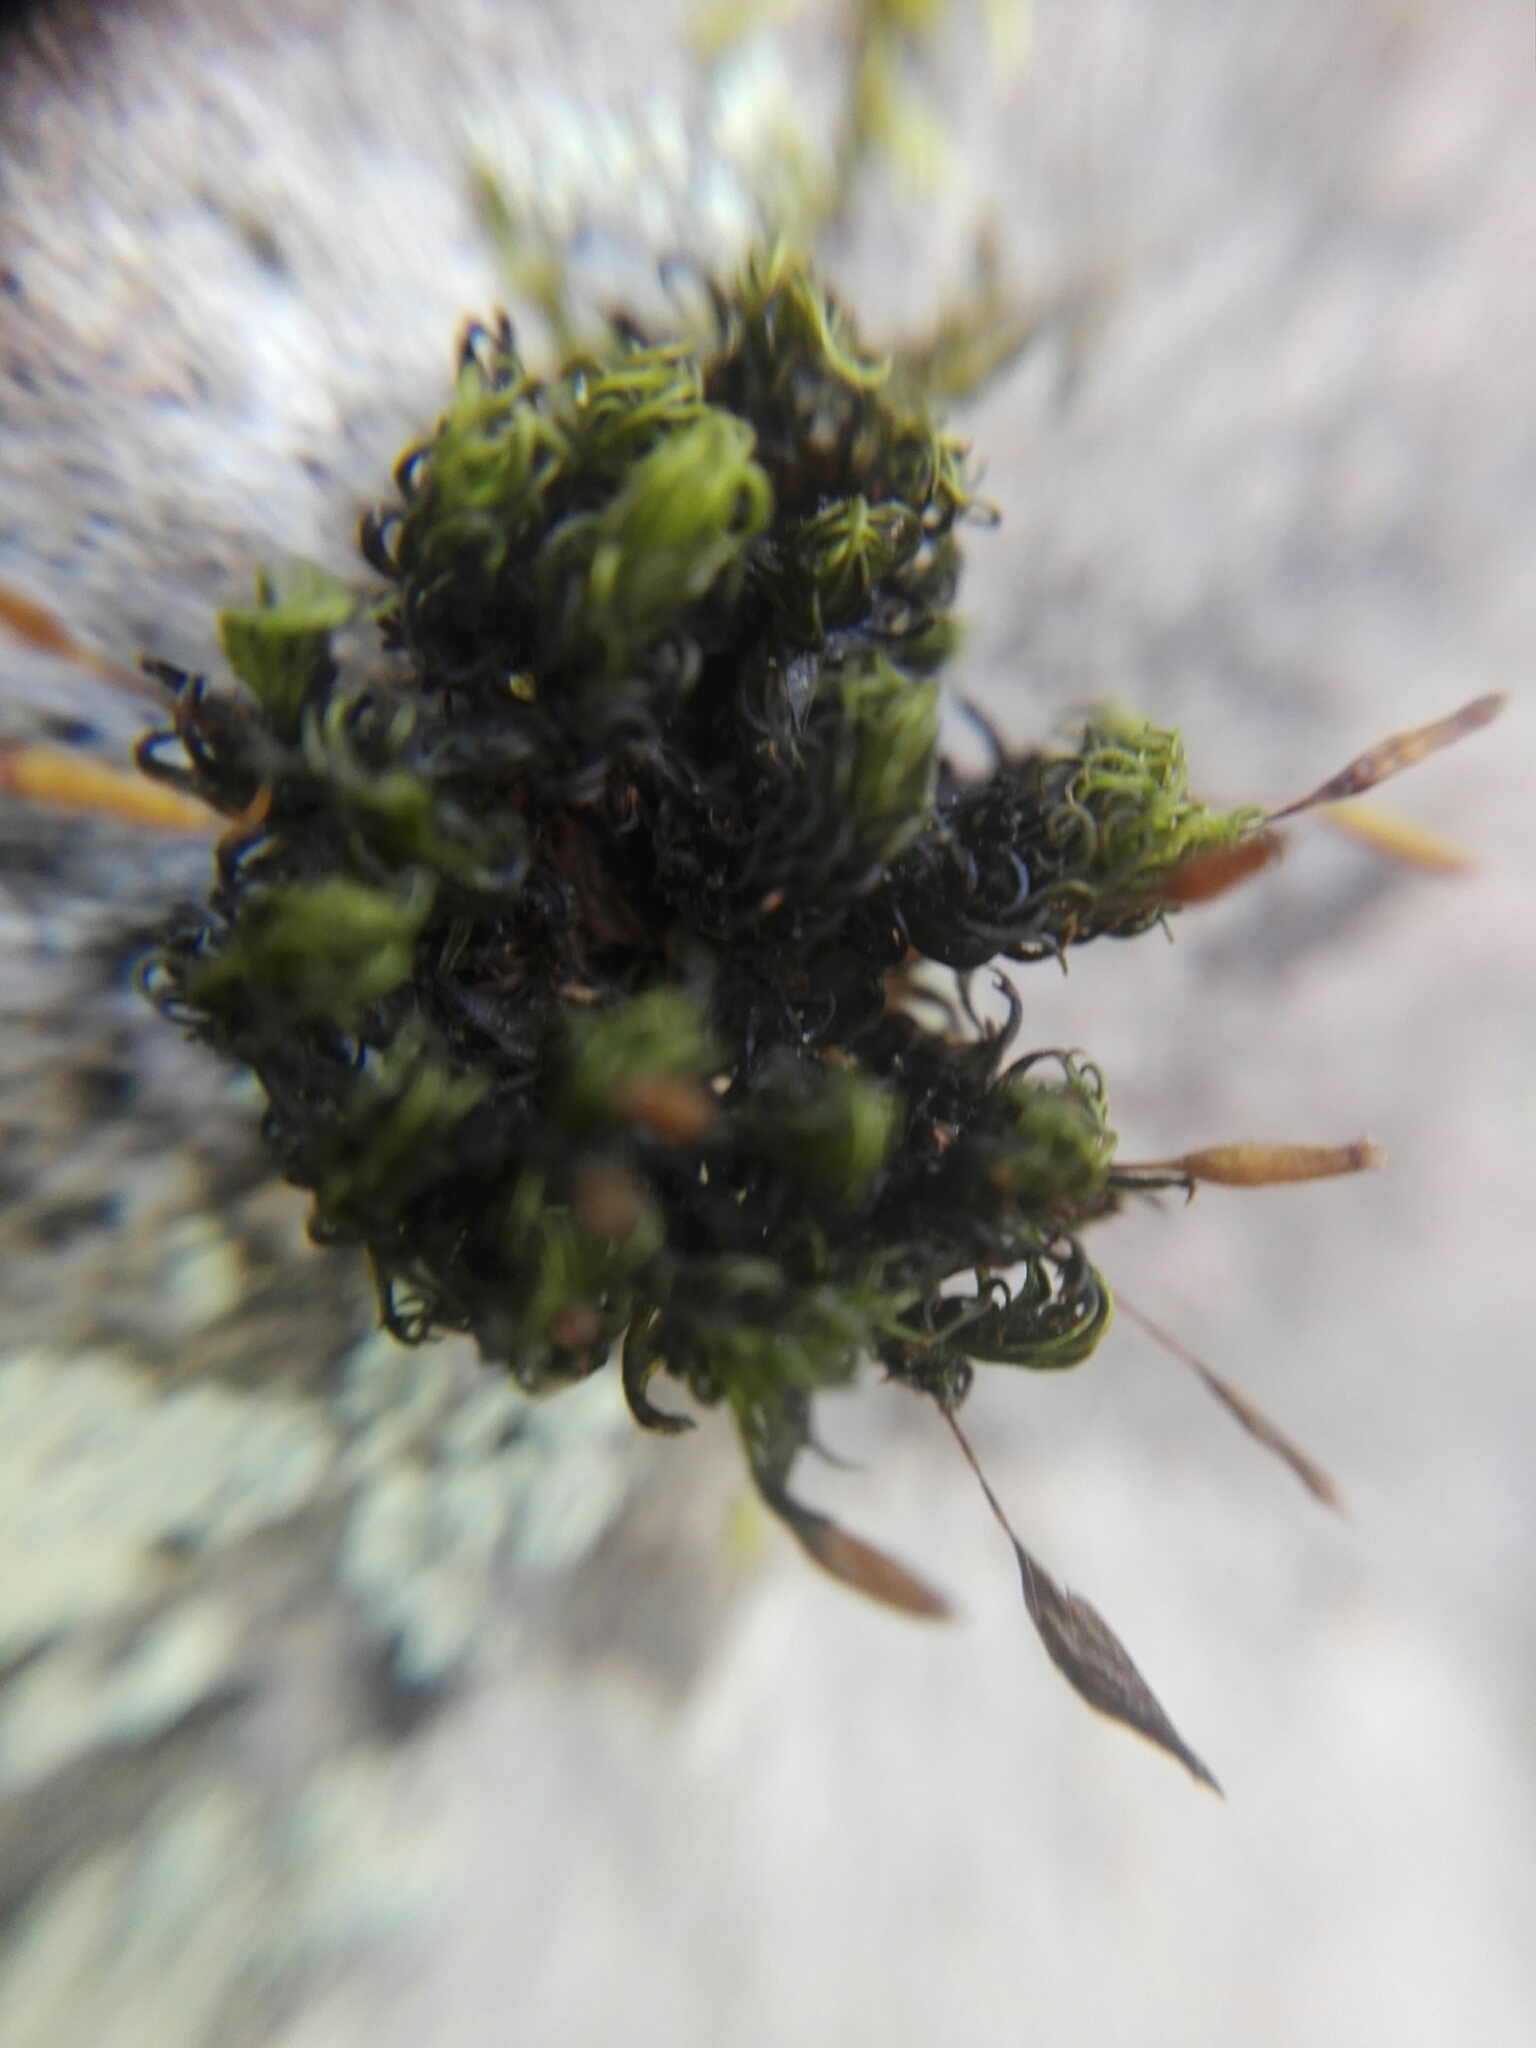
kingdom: Plantae
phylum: Bryophyta
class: Bryopsida
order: Orthotrichales
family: Orthotrichaceae
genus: Ulota
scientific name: Ulota crispa
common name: Crisped pincushion moss
